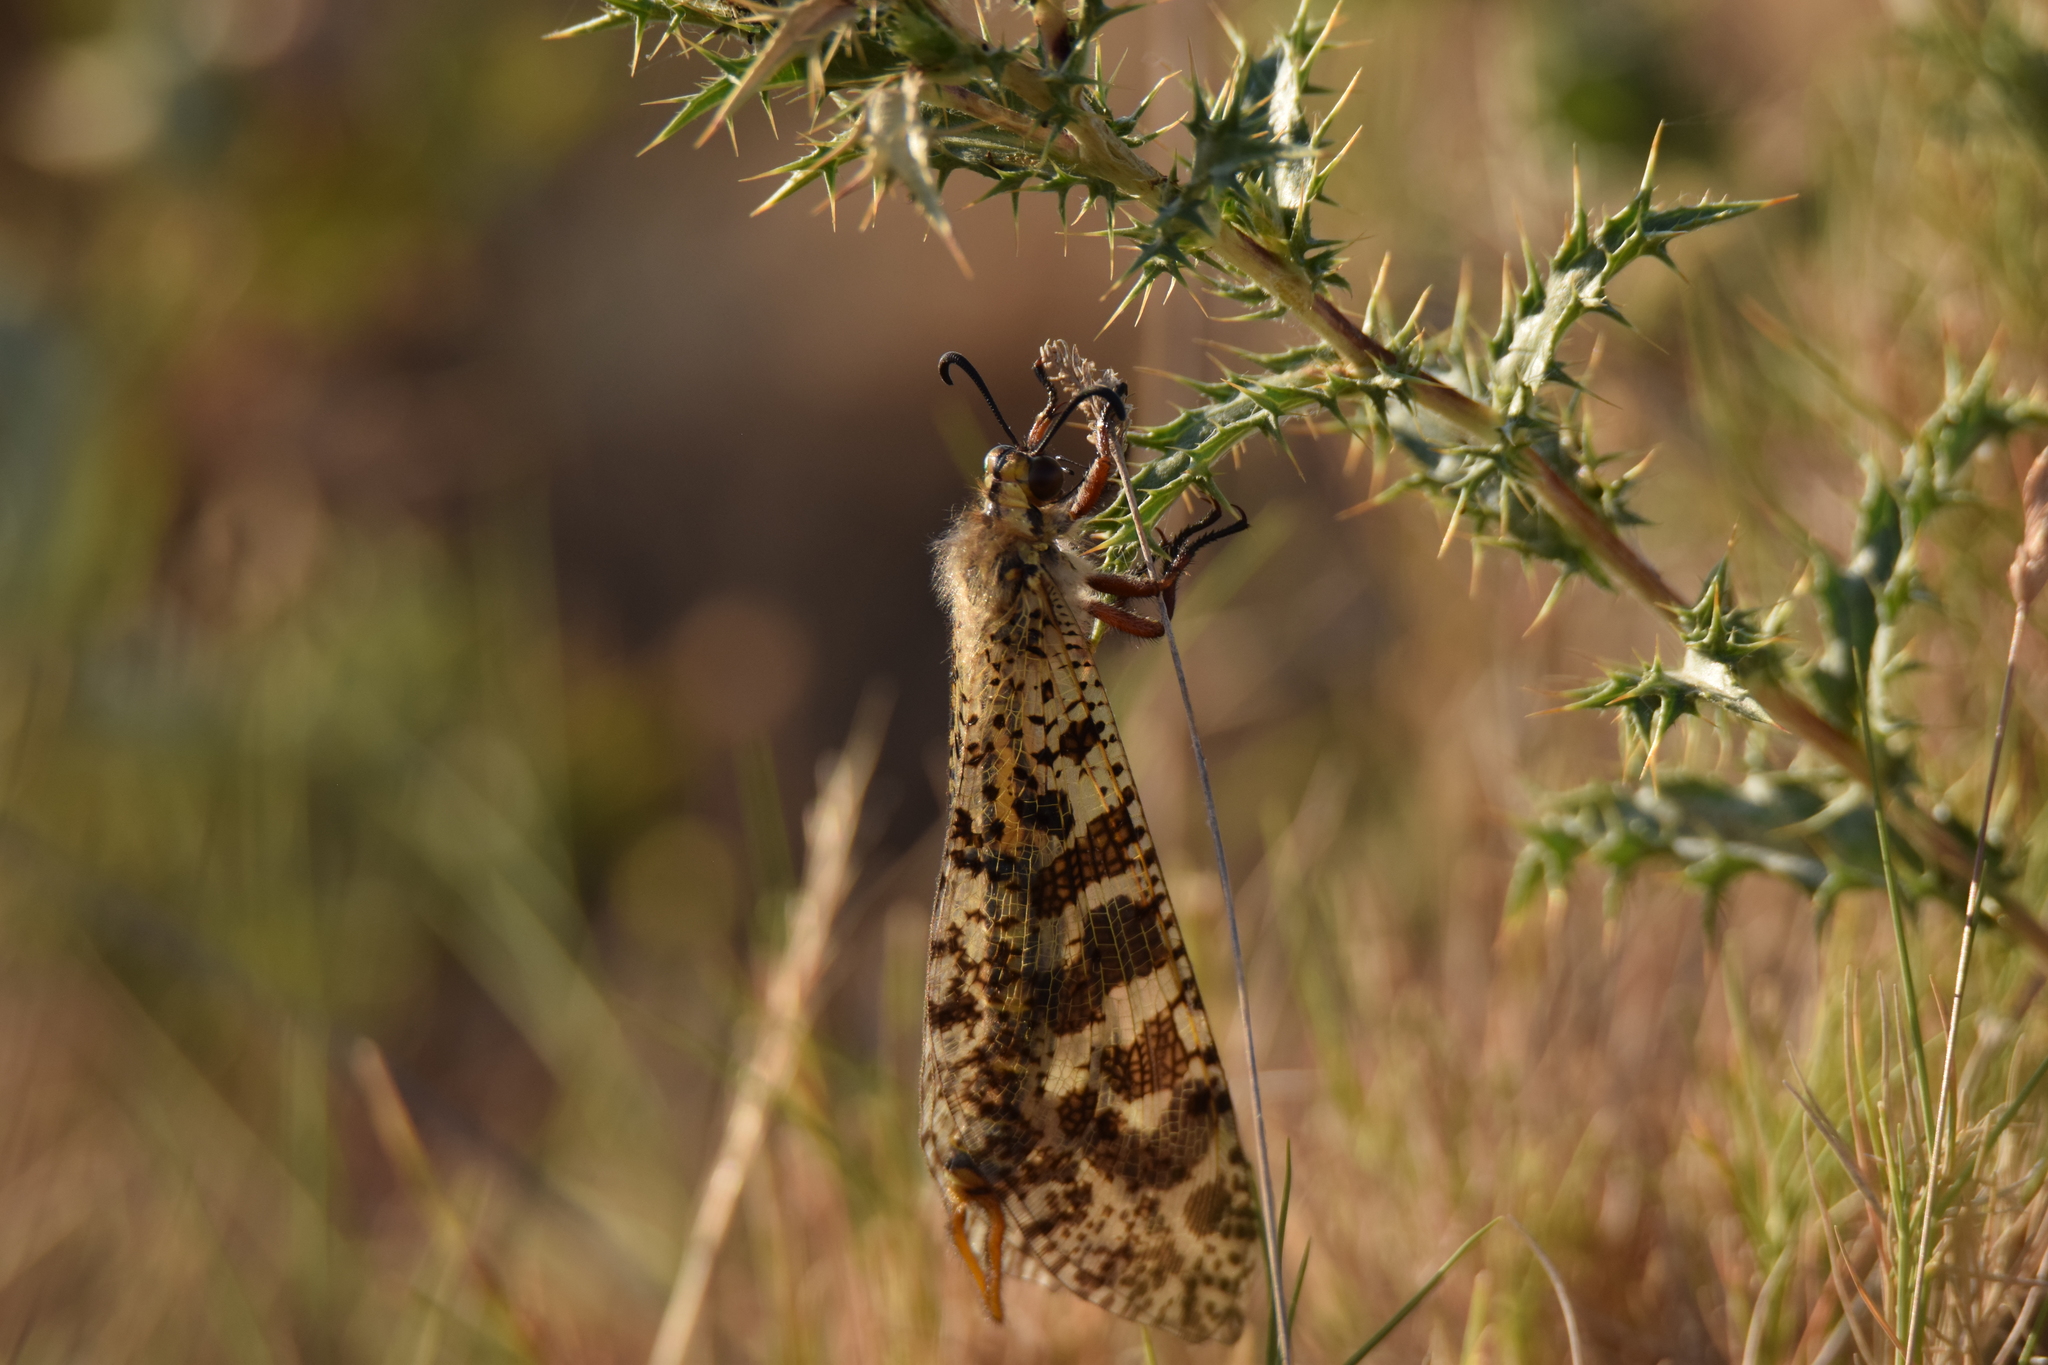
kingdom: Animalia
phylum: Arthropoda
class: Insecta
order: Neuroptera
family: Myrmeleontidae
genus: Palpares
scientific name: Palpares libelluloides
